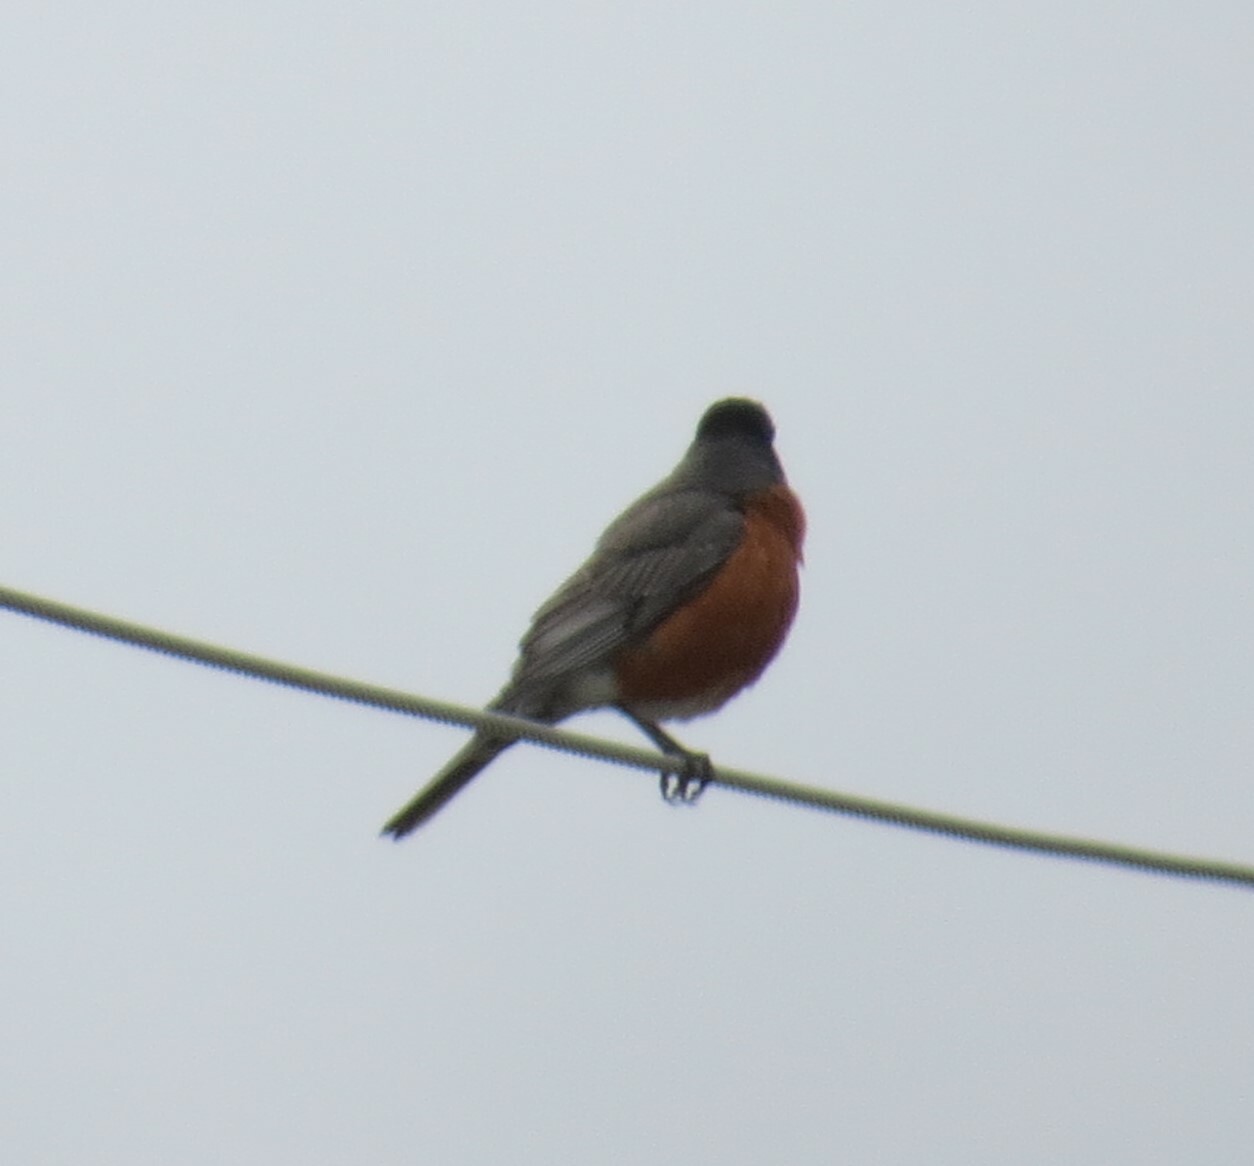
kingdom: Animalia
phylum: Chordata
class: Aves
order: Passeriformes
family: Turdidae
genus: Turdus
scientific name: Turdus migratorius
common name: American robin
